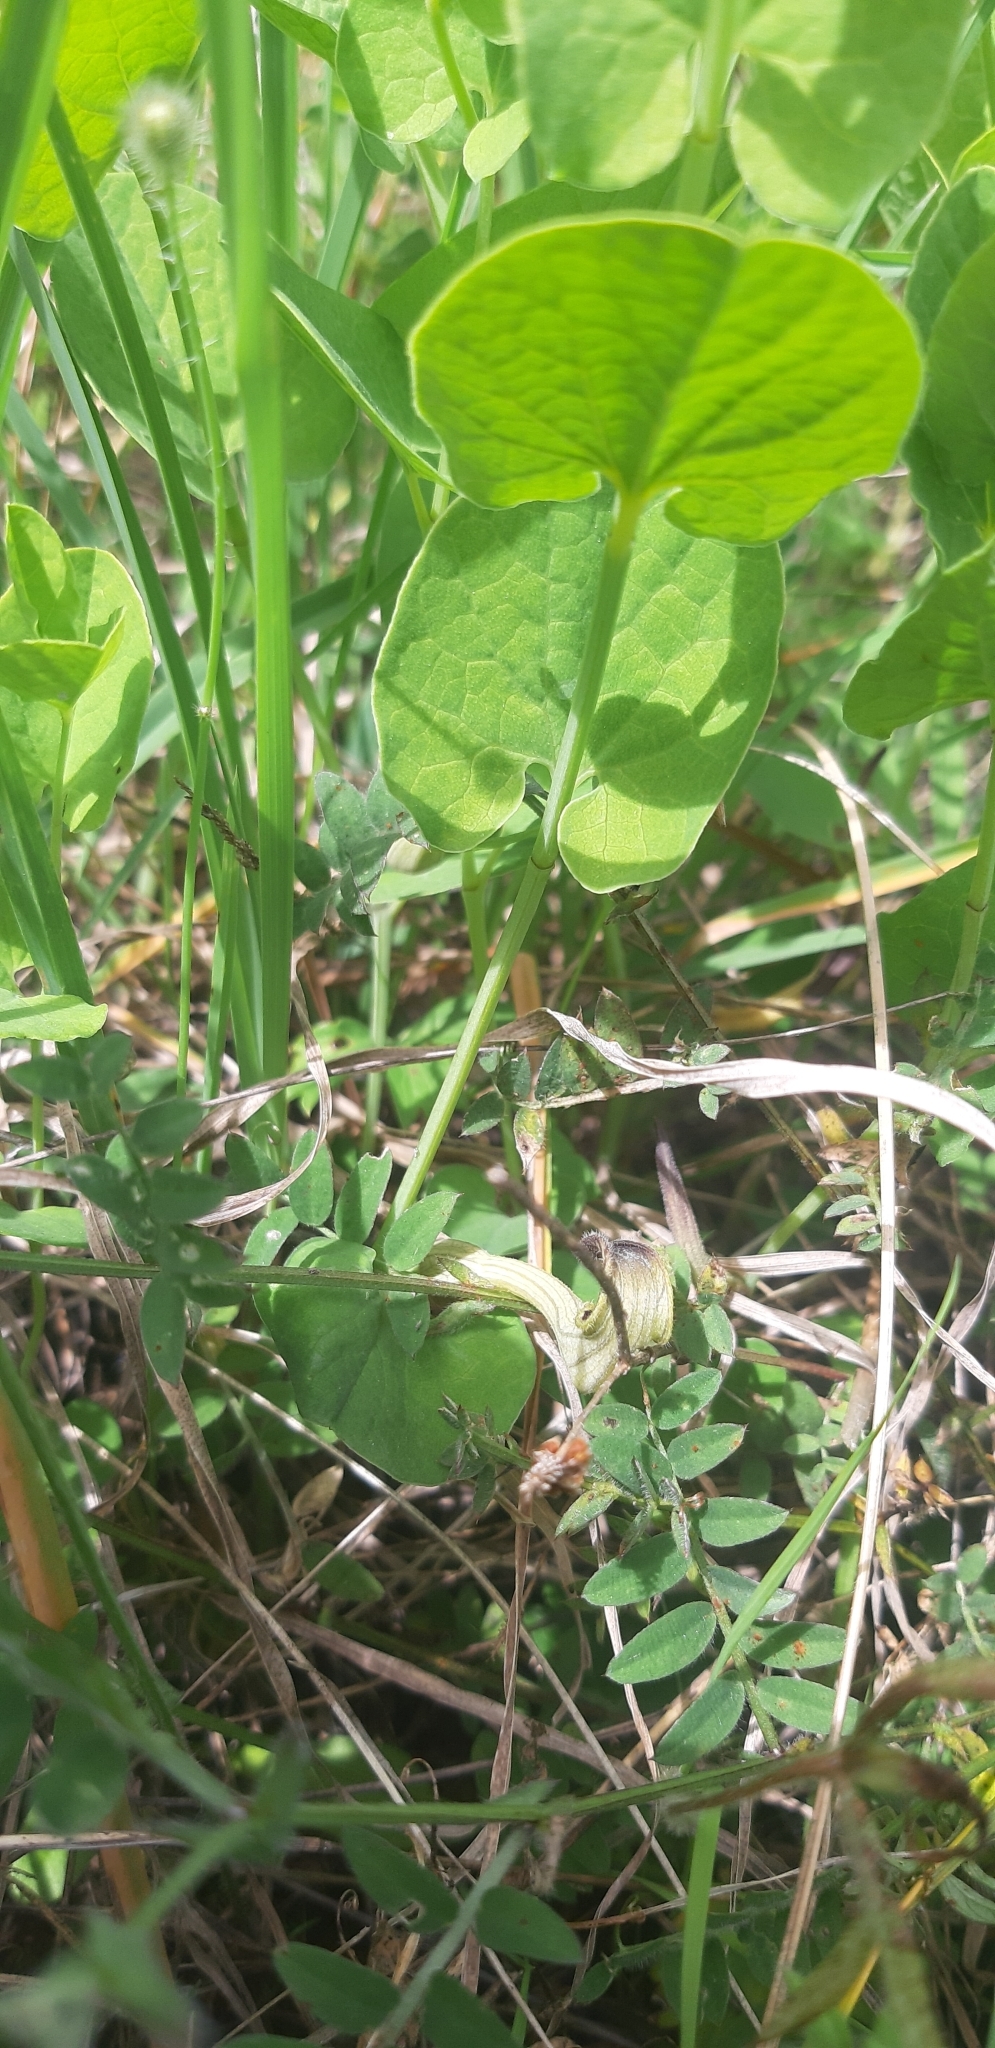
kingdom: Plantae
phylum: Tracheophyta
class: Magnoliopsida
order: Piperales
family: Aristolochiaceae
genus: Aristolochia
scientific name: Aristolochia clusii
